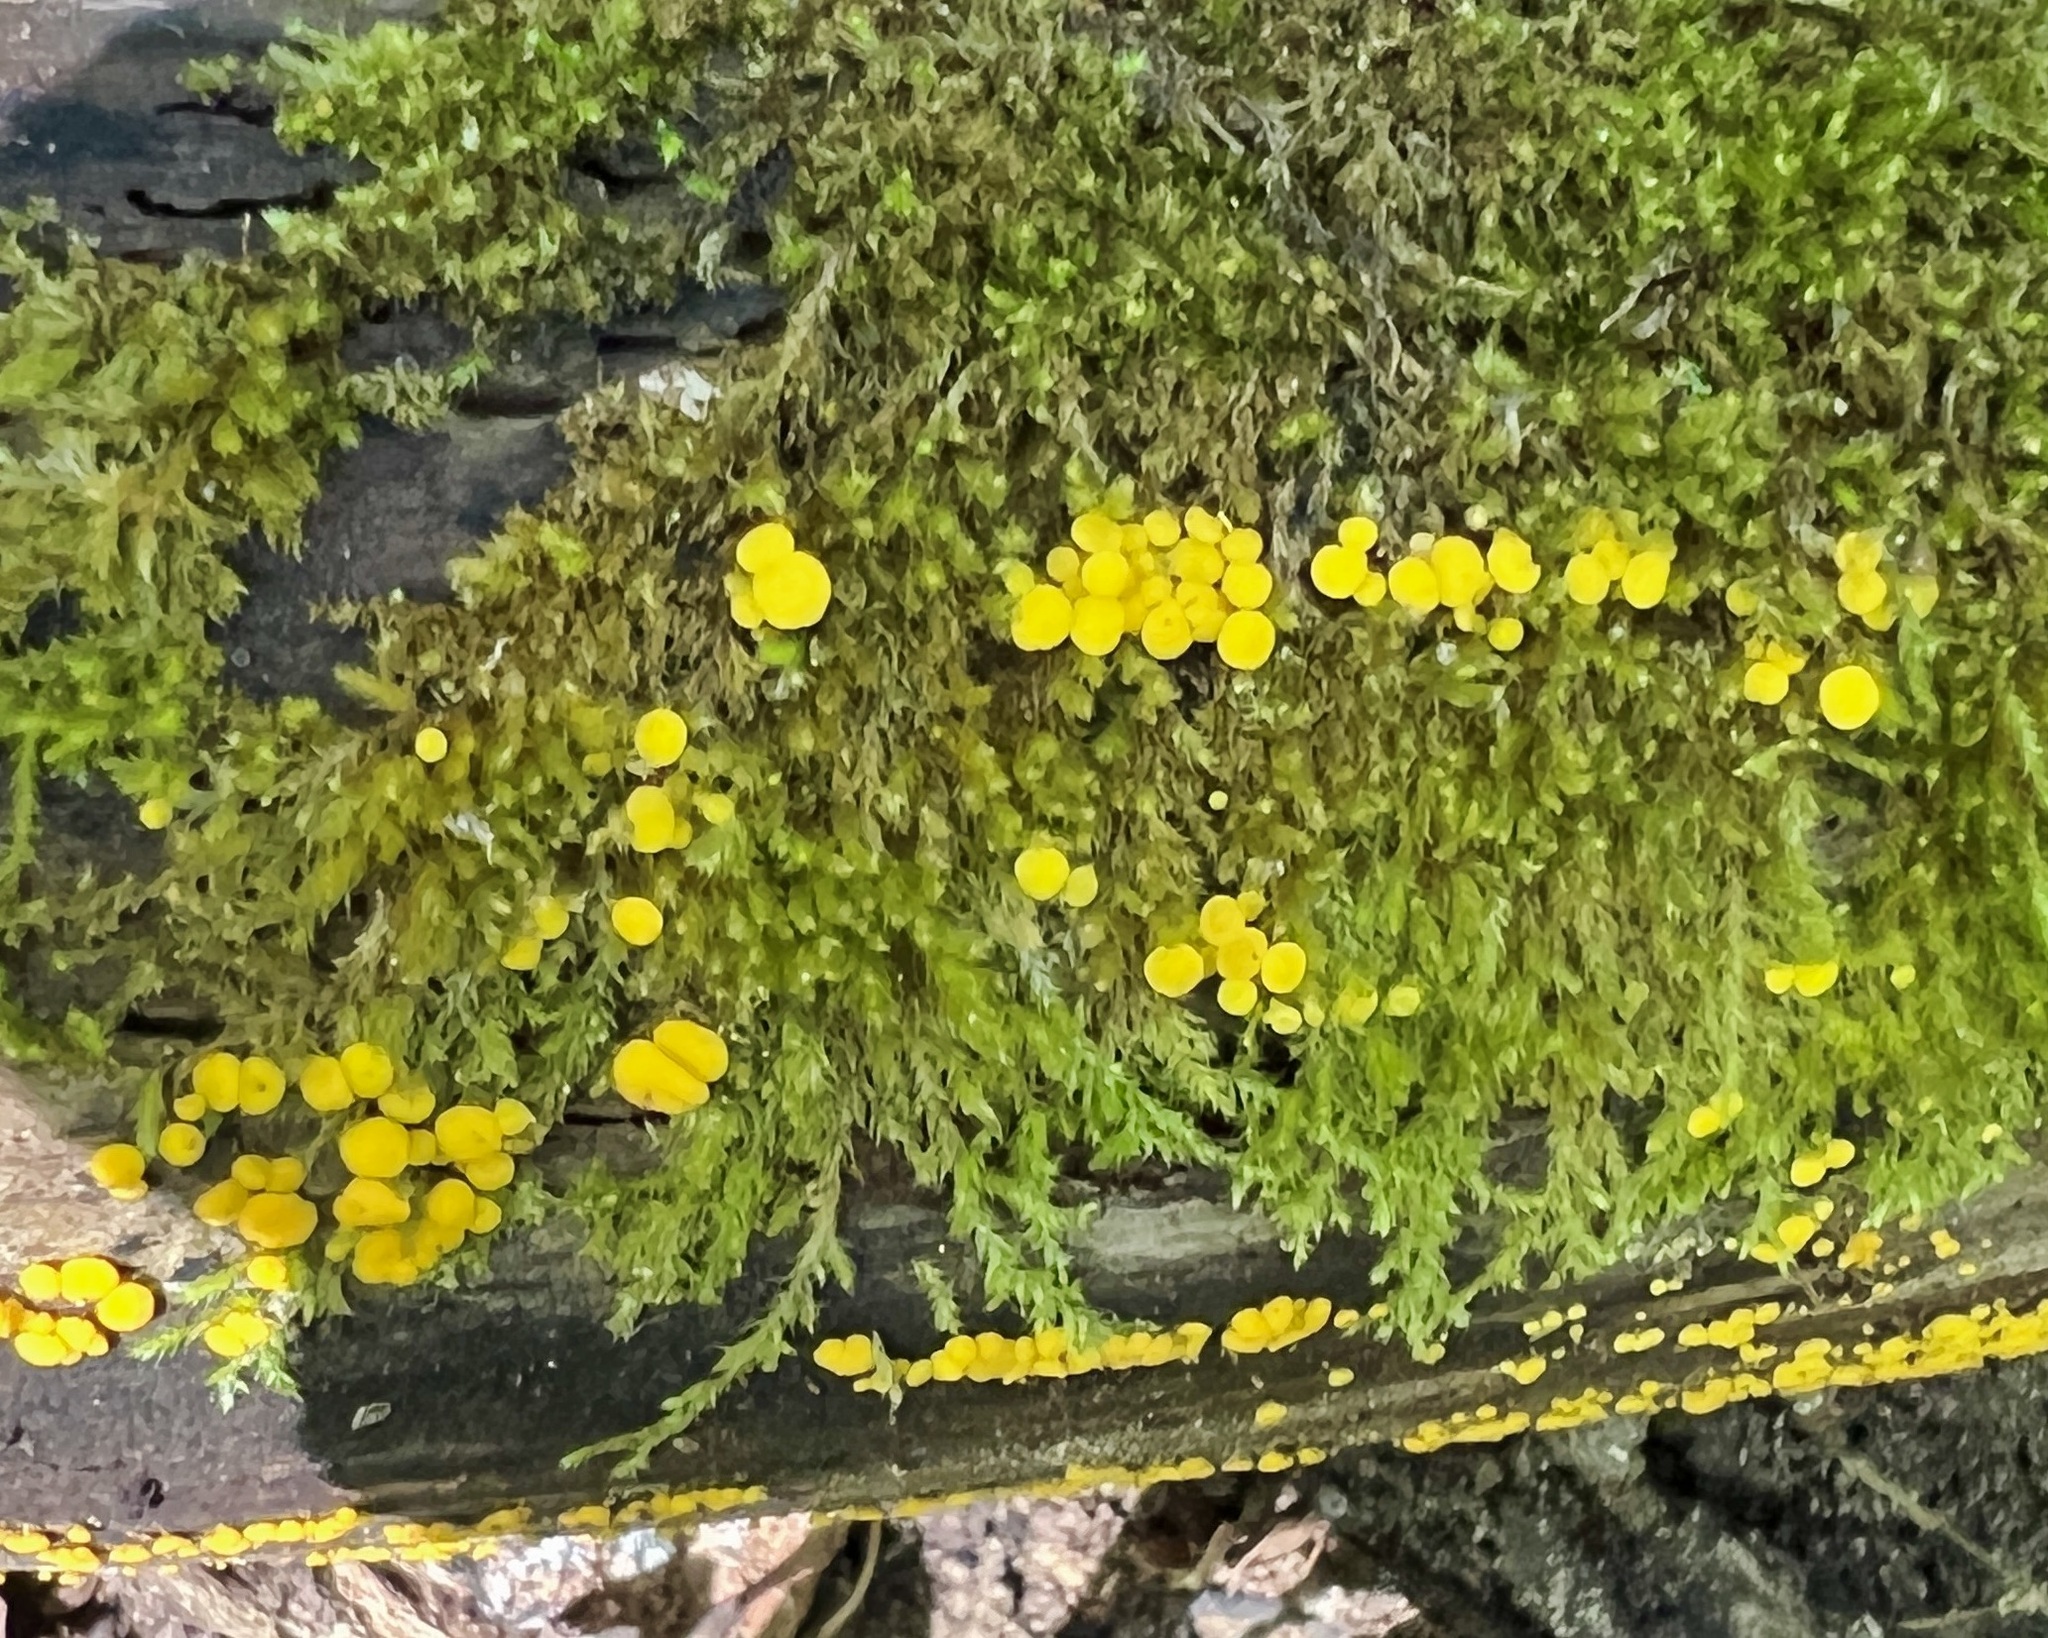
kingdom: Fungi
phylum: Ascomycota
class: Leotiomycetes
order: Helotiales
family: Pezizellaceae
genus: Calycina
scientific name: Calycina citrina
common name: Yellow fairy cups
